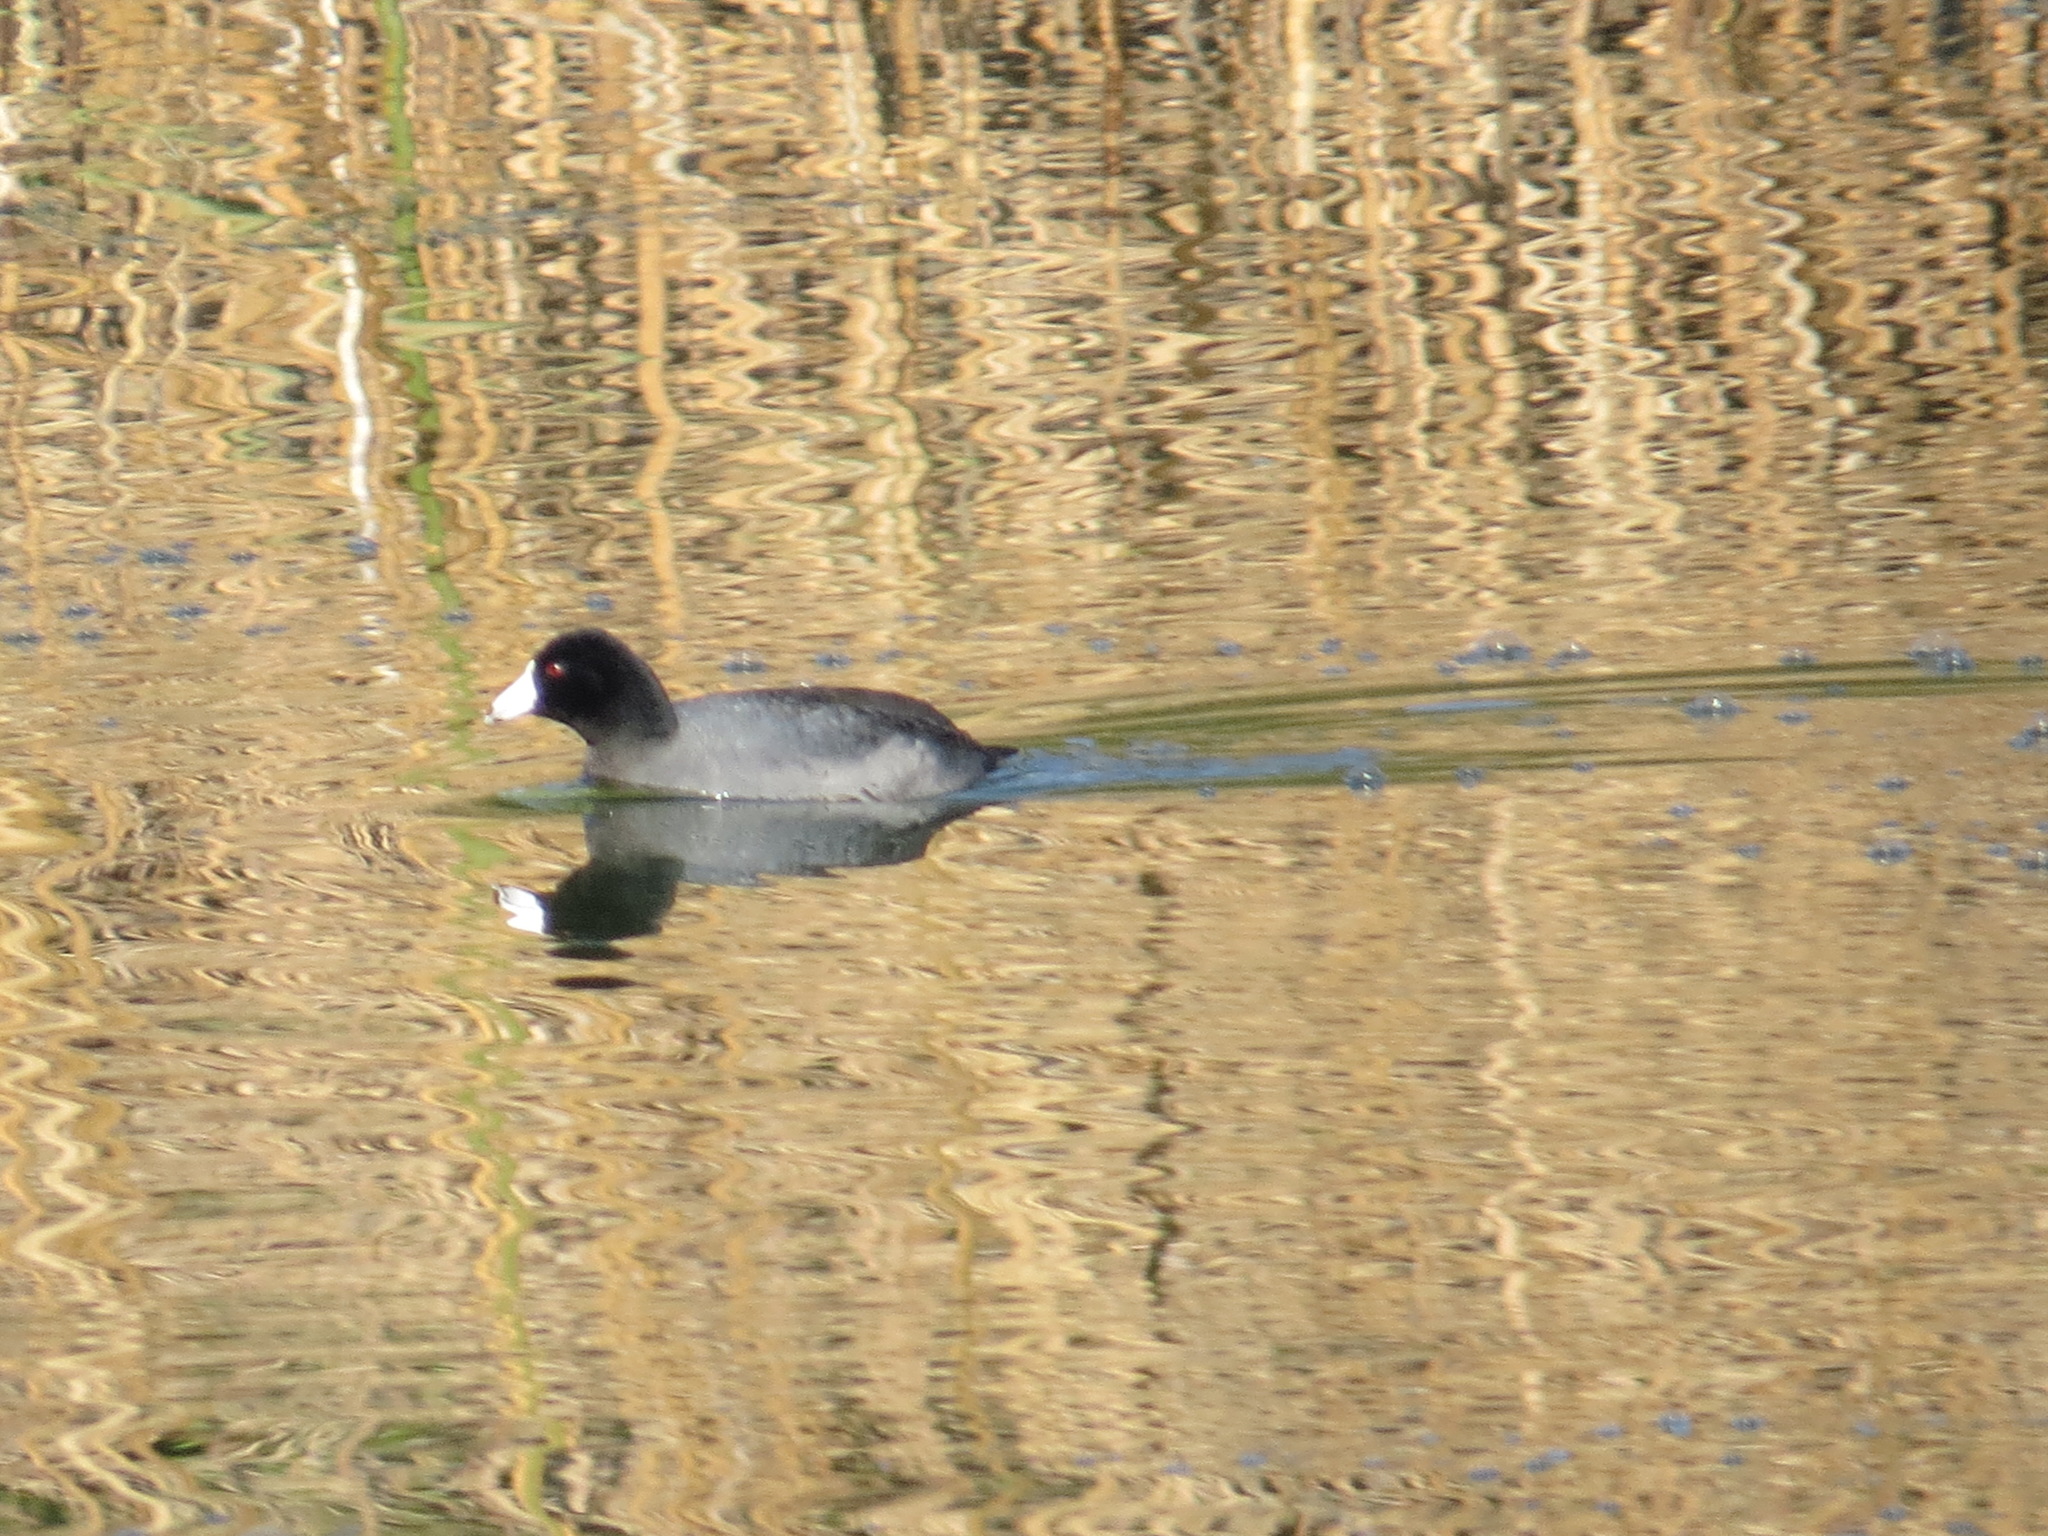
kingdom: Animalia
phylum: Chordata
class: Aves
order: Gruiformes
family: Rallidae
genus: Fulica
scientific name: Fulica americana
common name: American coot
